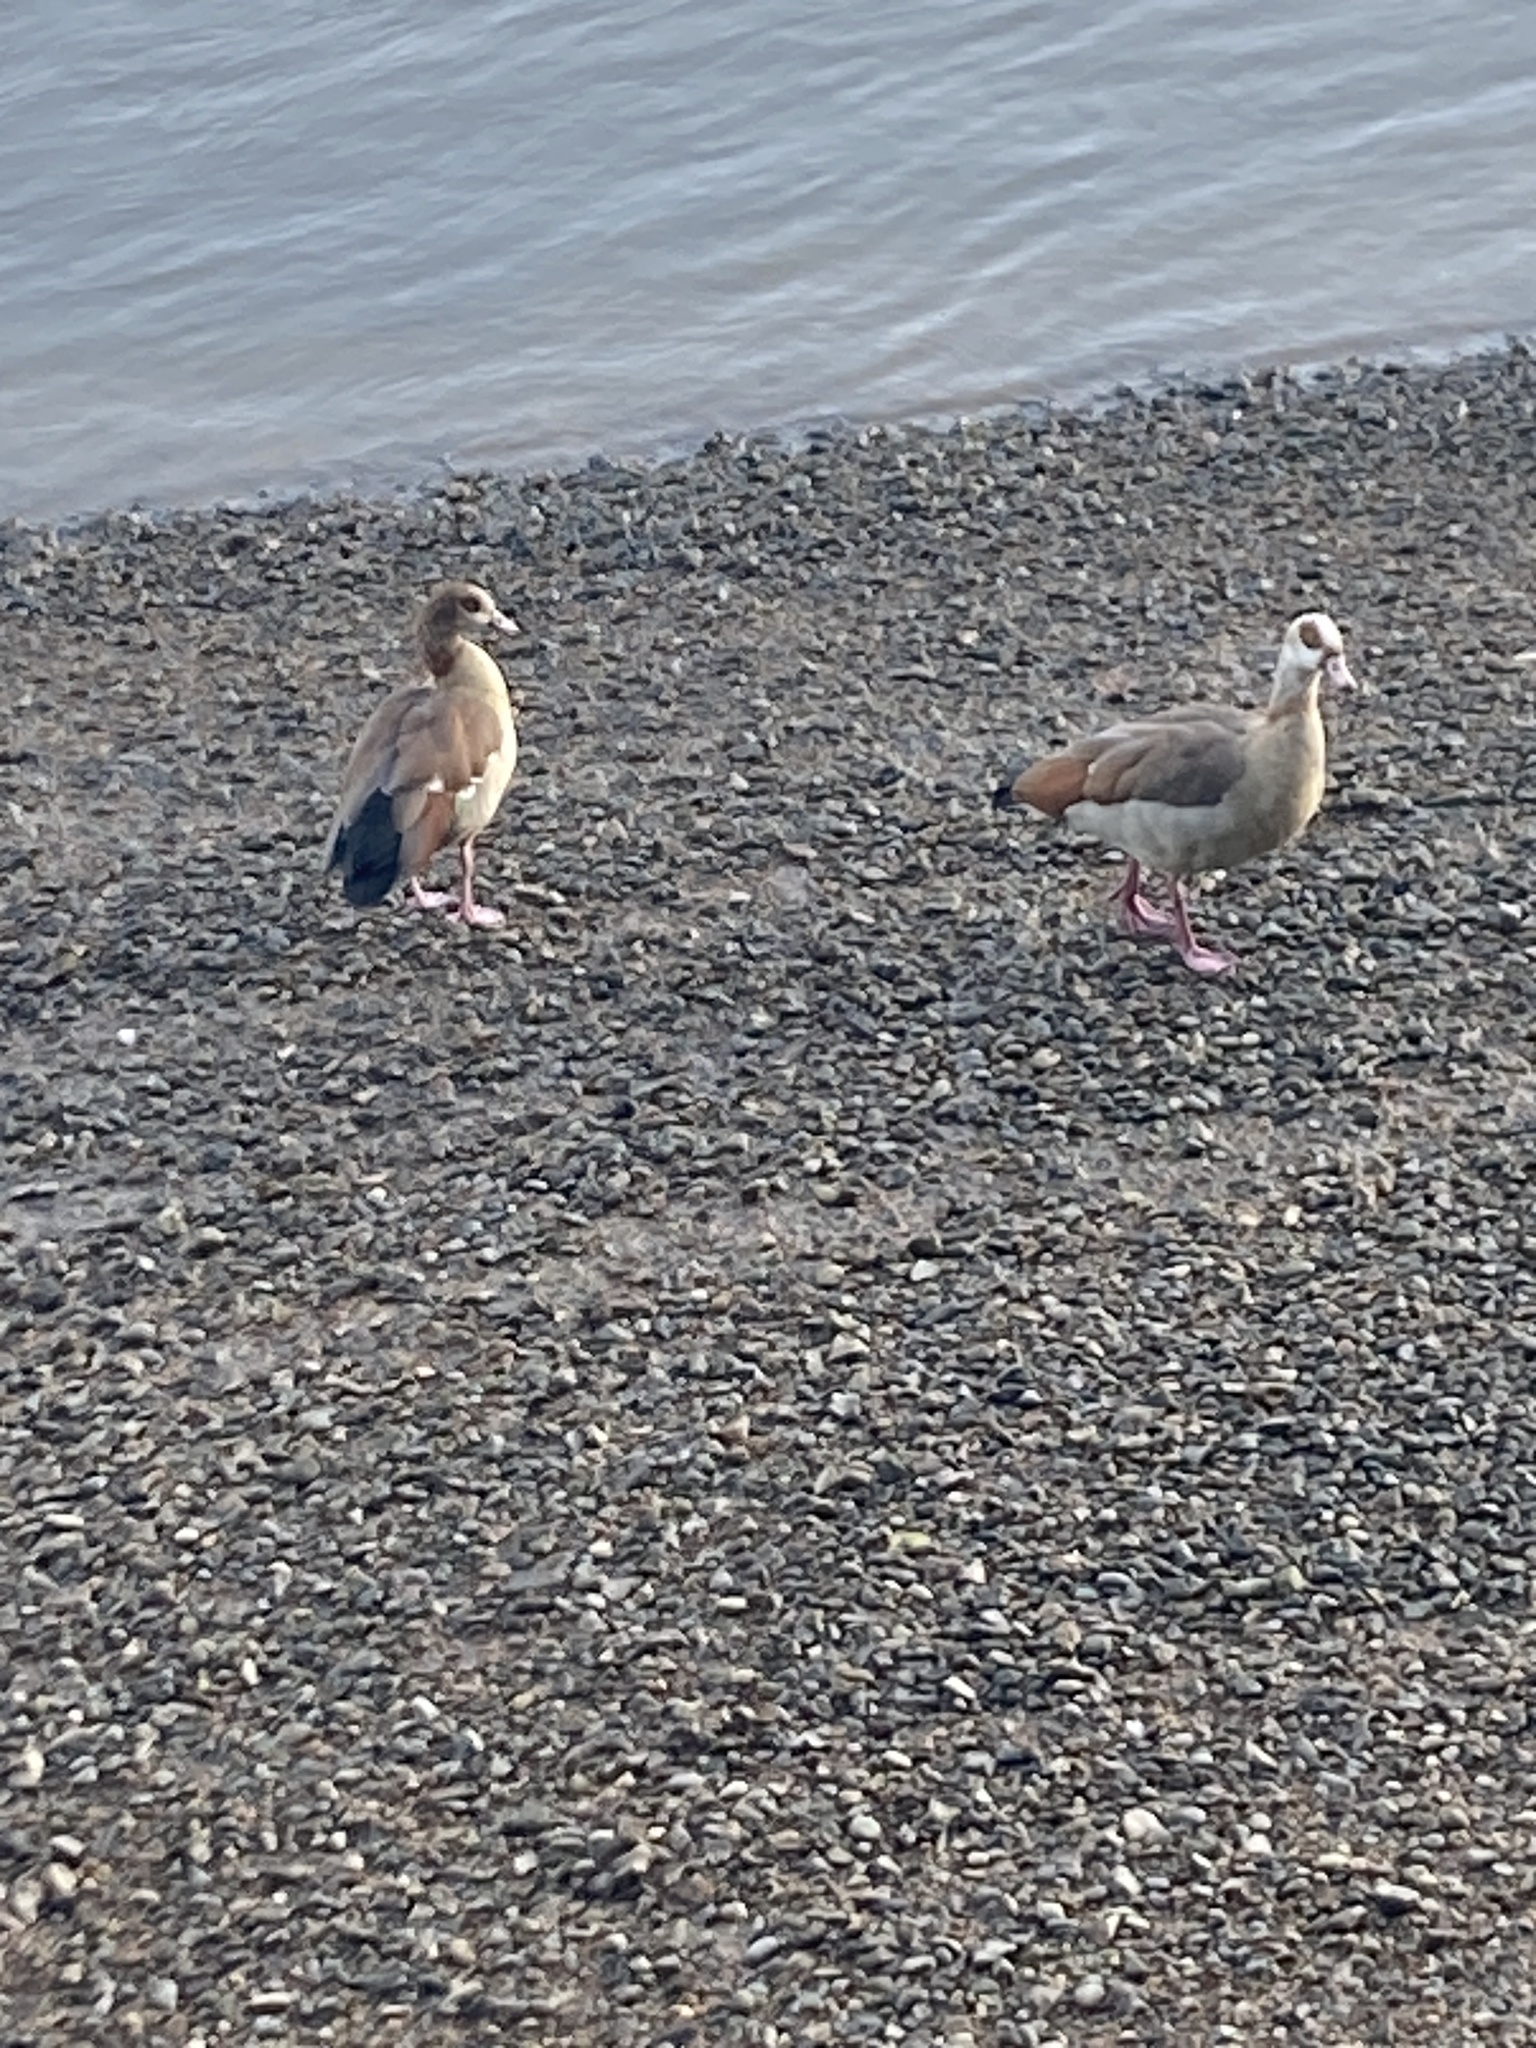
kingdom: Animalia
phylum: Chordata
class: Aves
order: Anseriformes
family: Anatidae
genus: Alopochen
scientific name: Alopochen aegyptiaca
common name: Egyptian goose
